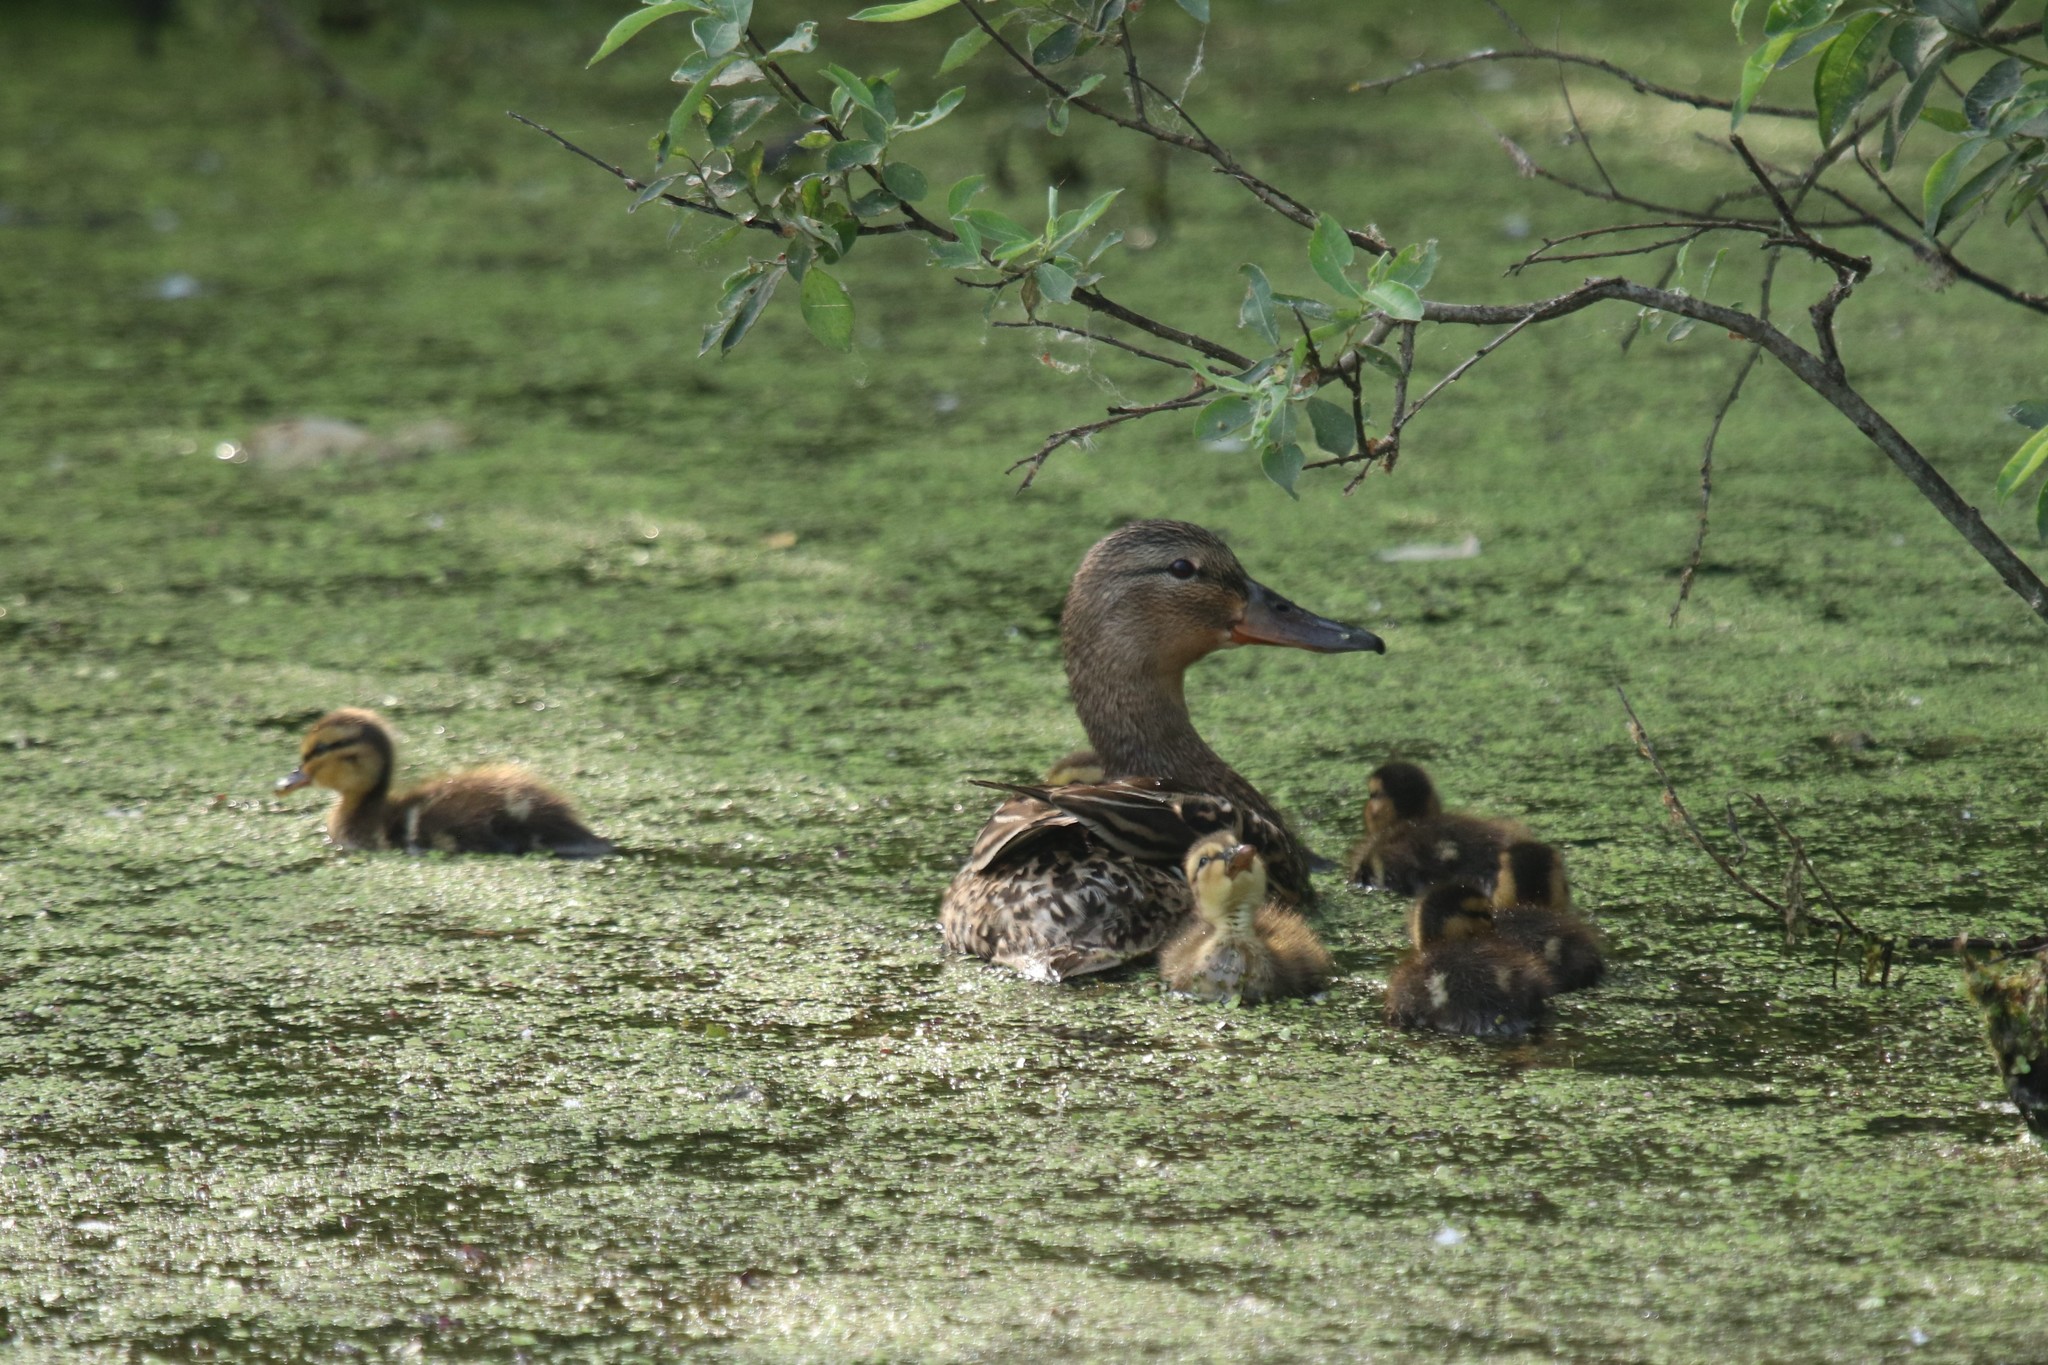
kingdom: Animalia
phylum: Chordata
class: Aves
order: Anseriformes
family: Anatidae
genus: Anas
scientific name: Anas platyrhynchos
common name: Mallard
